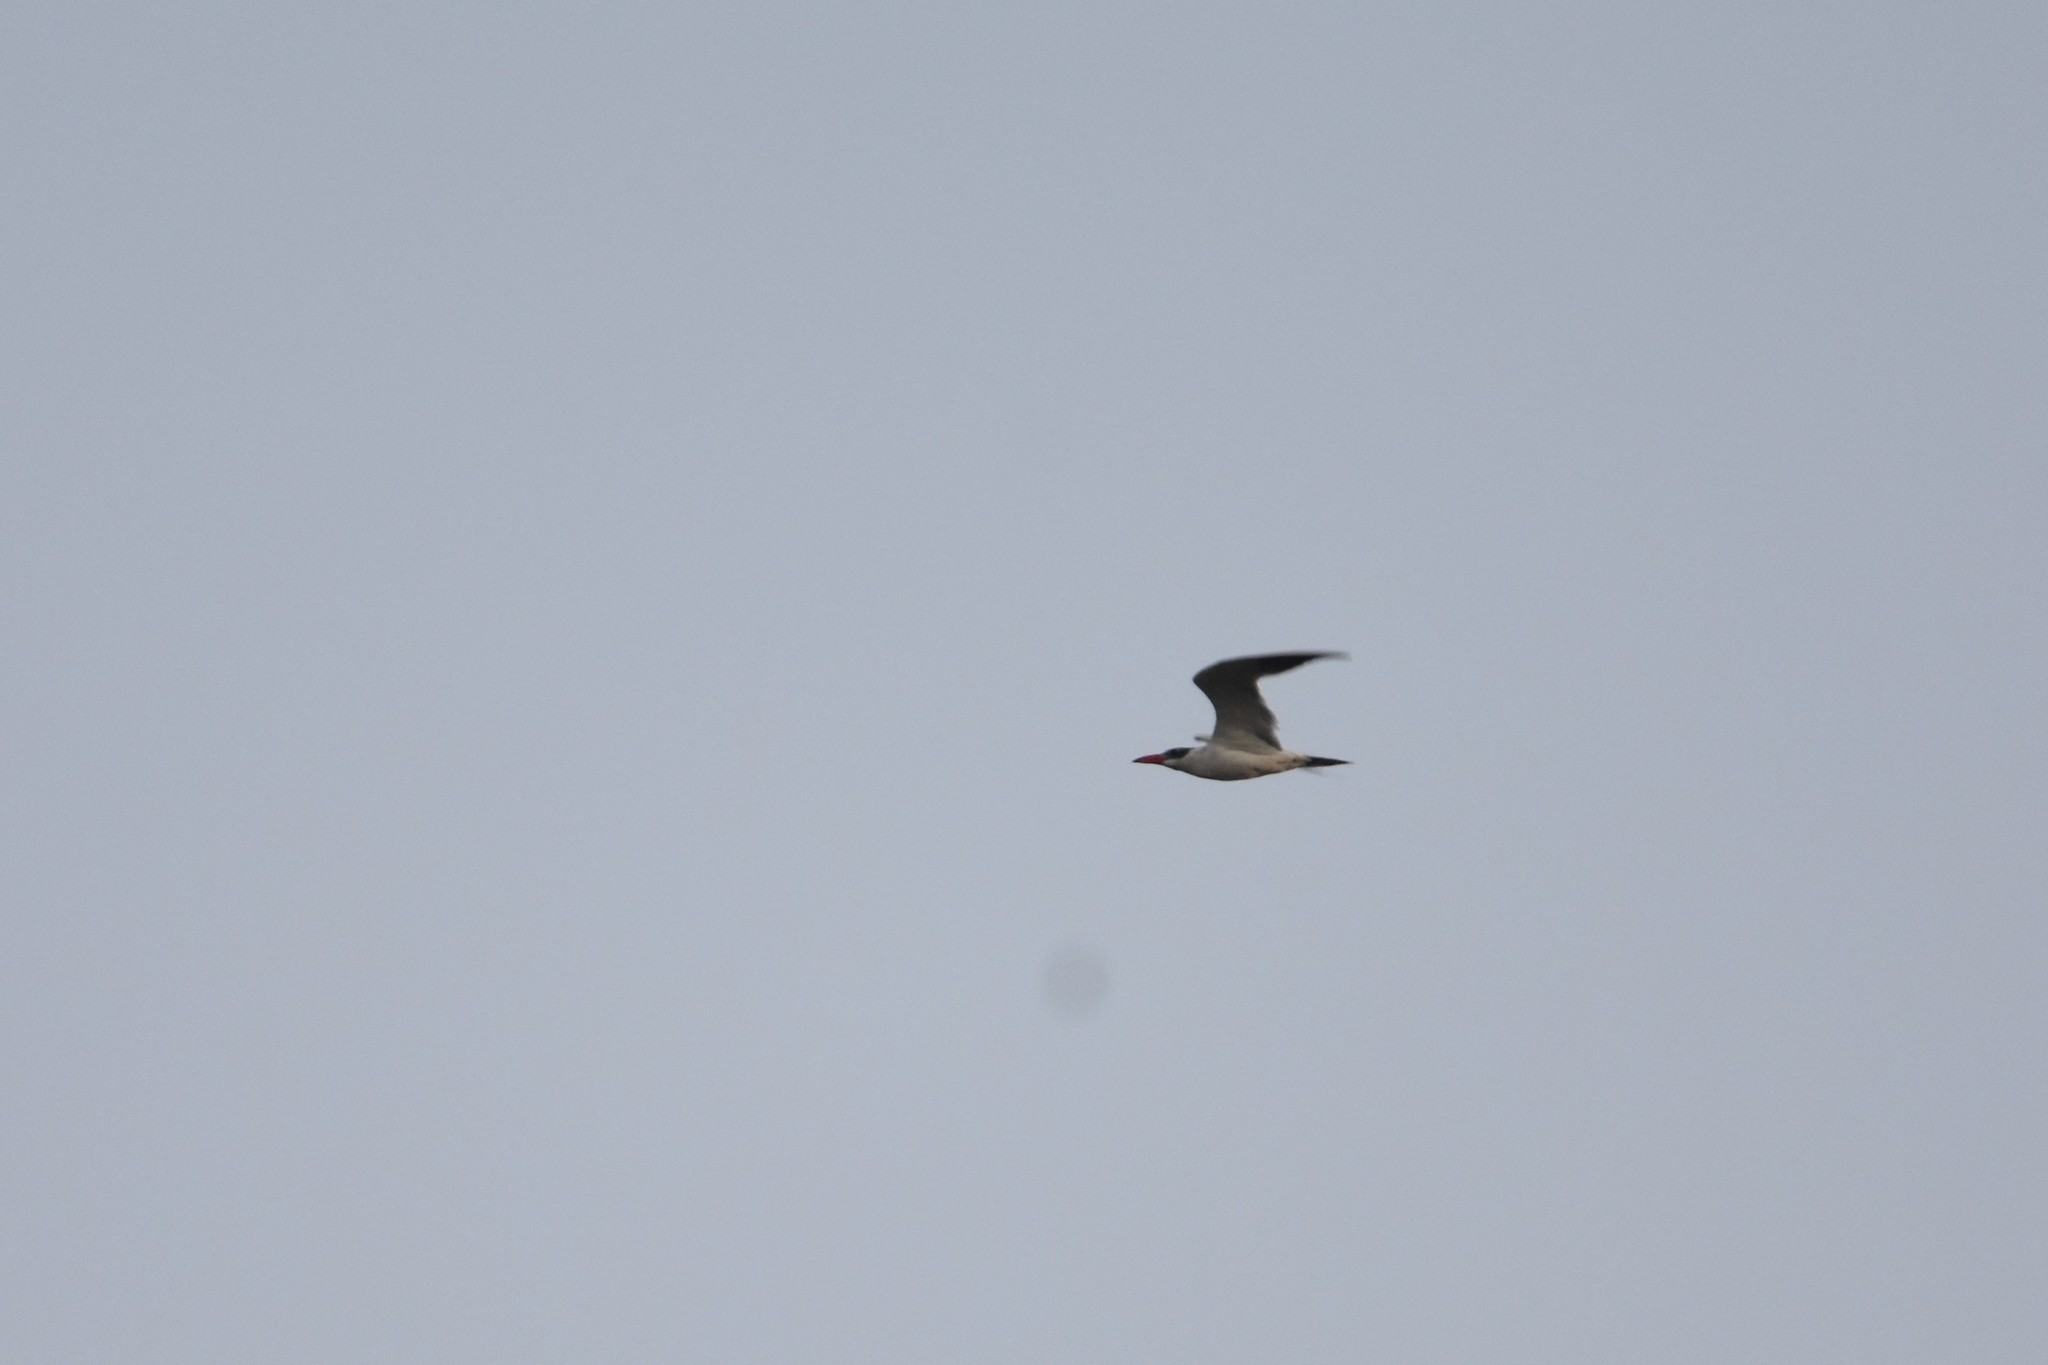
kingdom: Animalia
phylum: Chordata
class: Aves
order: Charadriiformes
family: Laridae
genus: Hydroprogne
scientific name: Hydroprogne caspia
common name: Caspian tern
